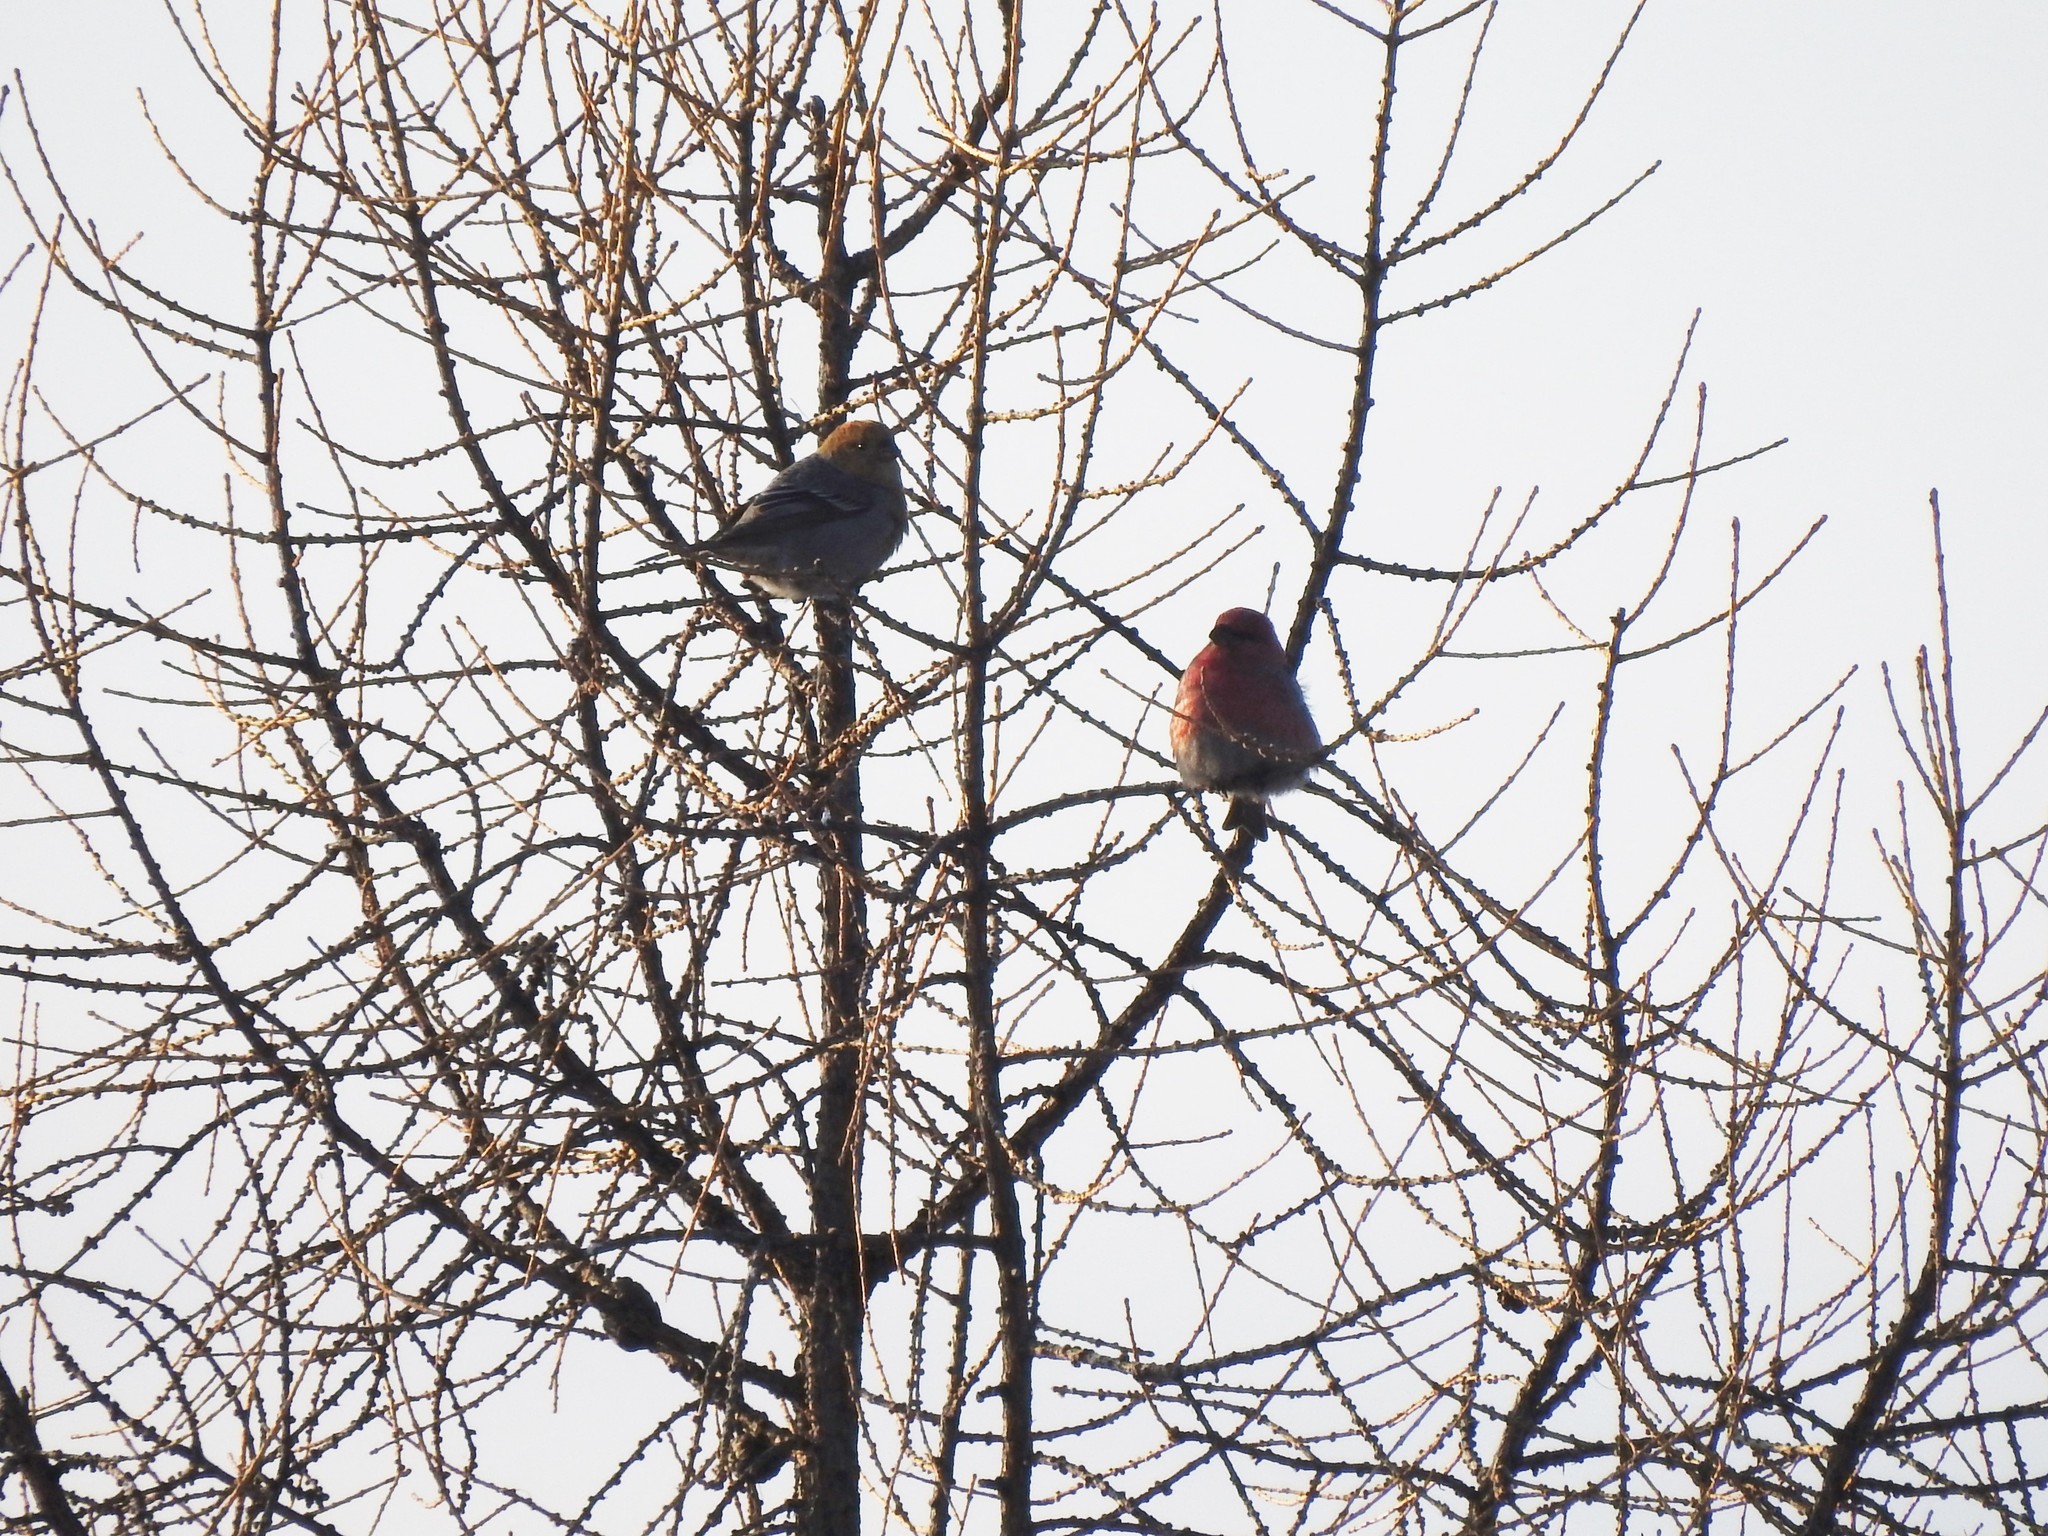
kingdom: Animalia
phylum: Chordata
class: Aves
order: Passeriformes
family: Fringillidae
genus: Pinicola
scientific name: Pinicola enucleator
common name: Pine grosbeak
